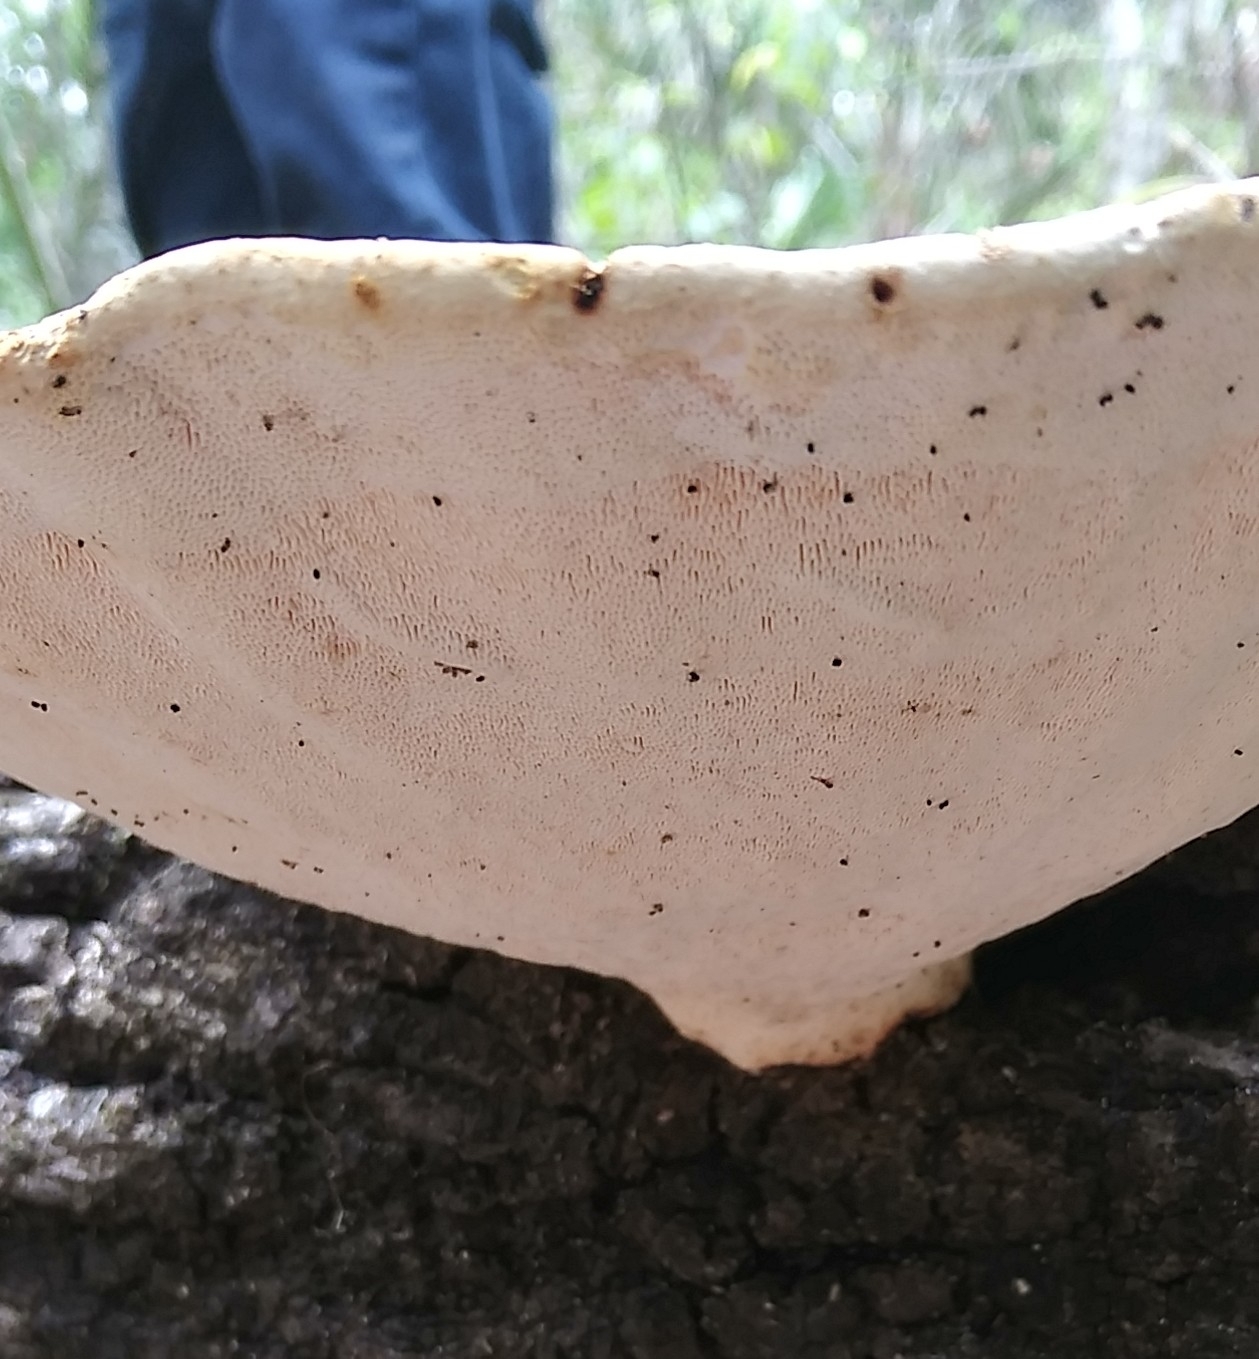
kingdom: Fungi
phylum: Basidiomycota
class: Agaricomycetes
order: Polyporales
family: Polyporaceae
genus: Trametes
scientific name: Trametes
